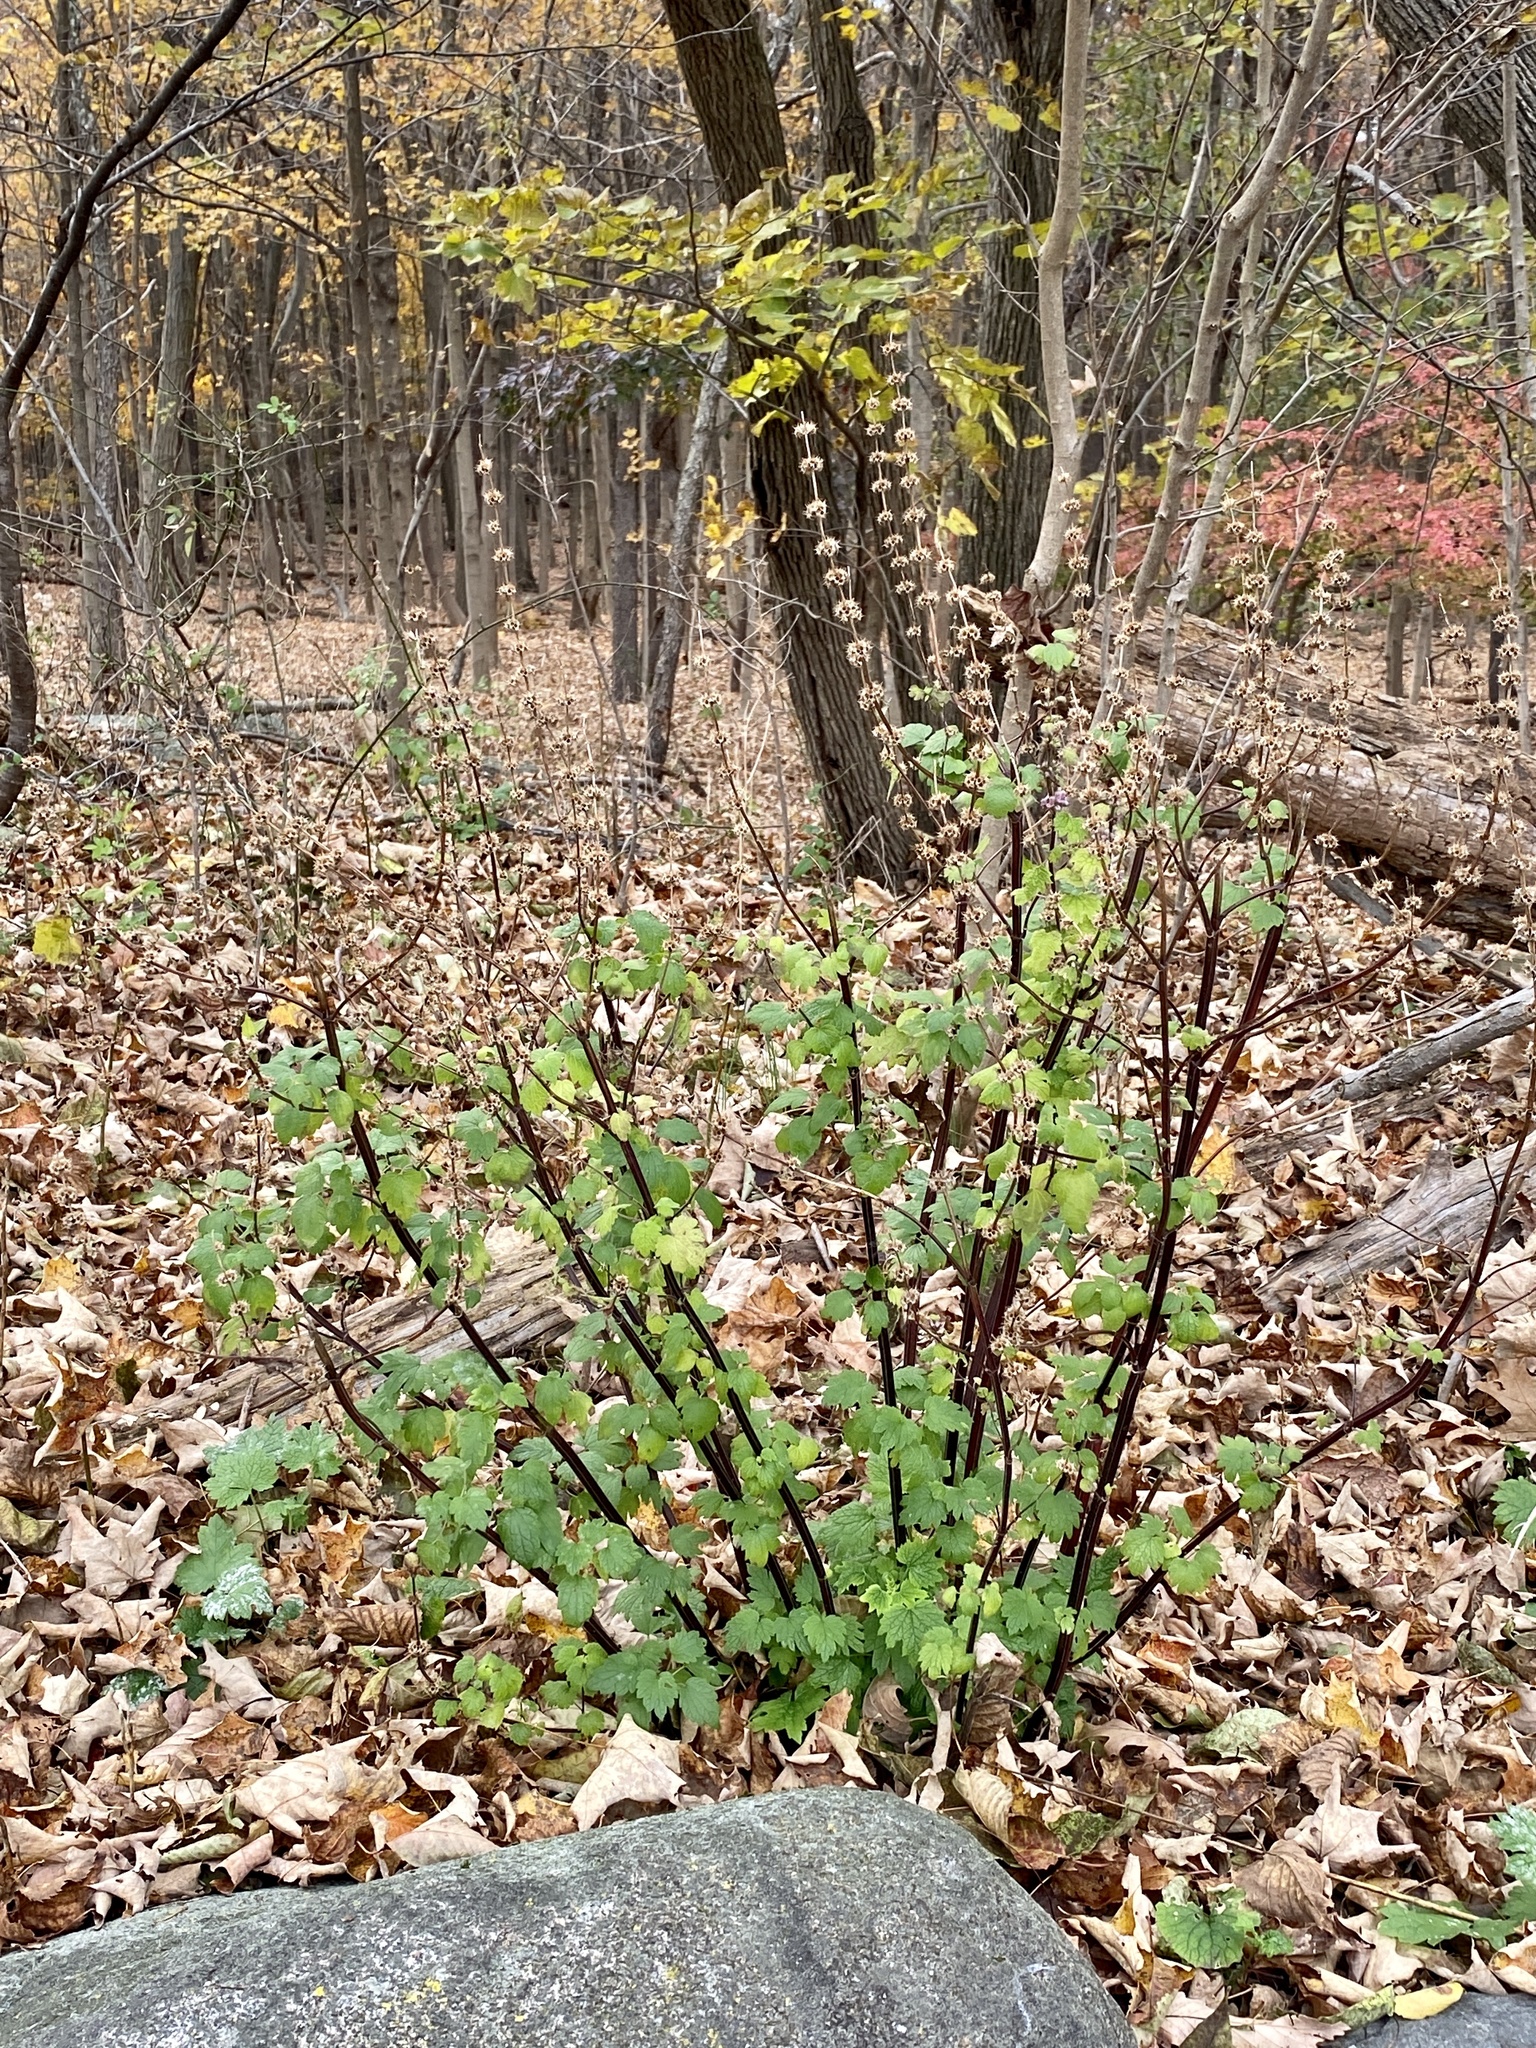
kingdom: Plantae
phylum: Tracheophyta
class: Magnoliopsida
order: Lamiales
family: Lamiaceae
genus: Leonurus
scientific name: Leonurus cardiaca
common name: Motherwort
